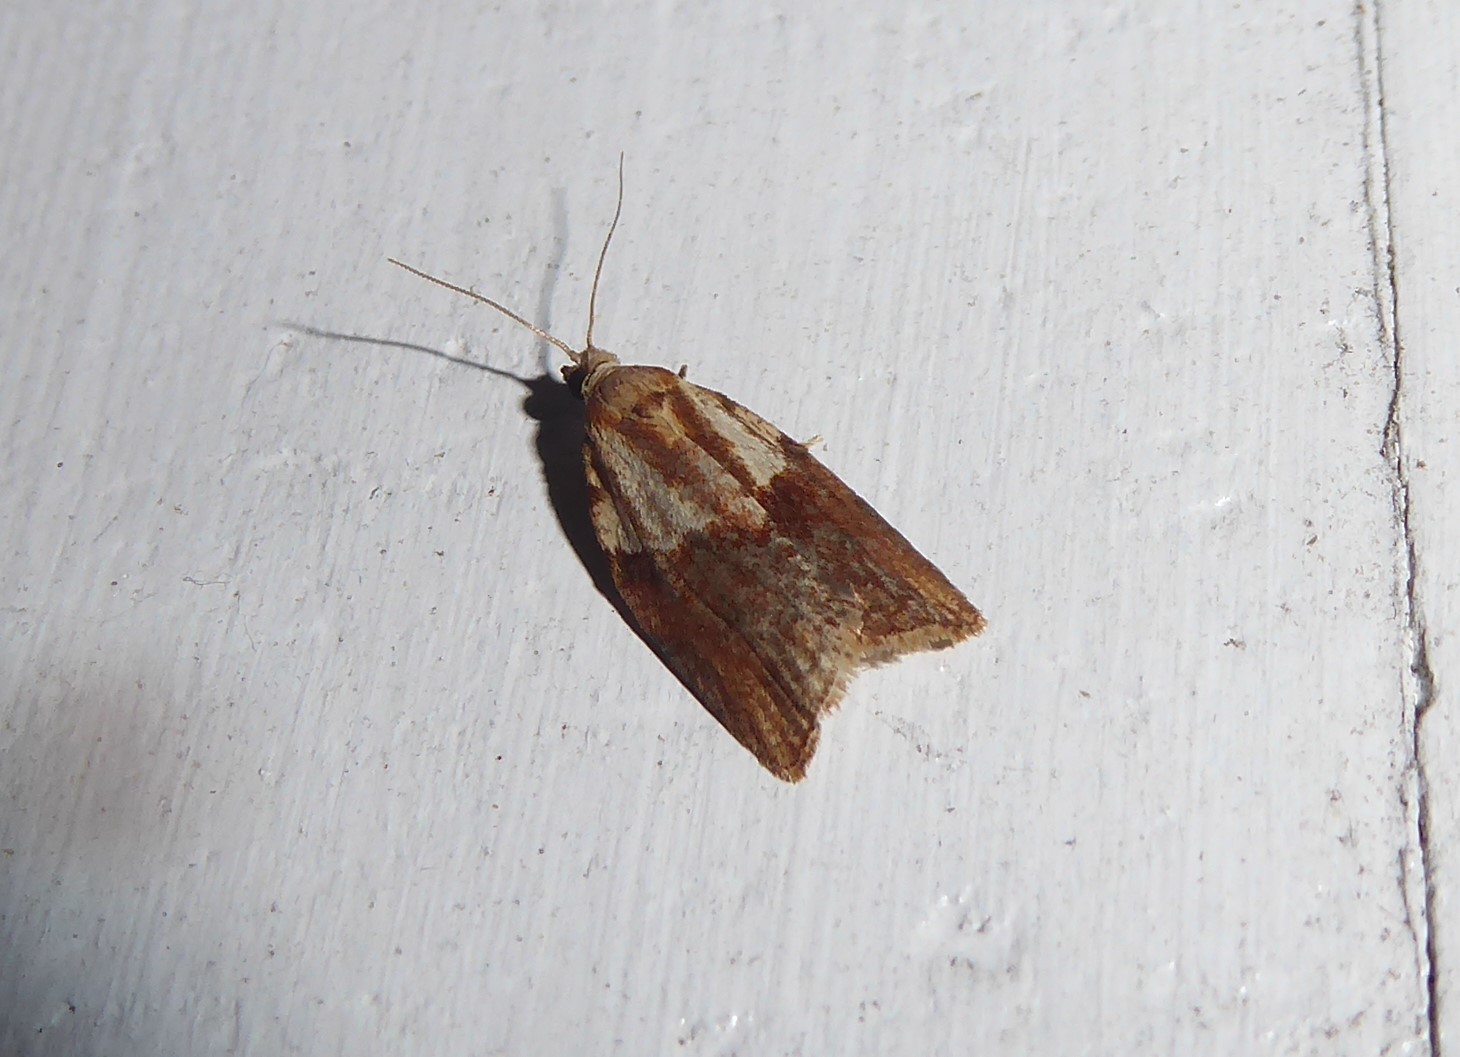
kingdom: Animalia
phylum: Arthropoda
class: Insecta
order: Lepidoptera
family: Tortricidae
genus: Epiphyas
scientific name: Epiphyas postvittana
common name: Light brown apple moth
